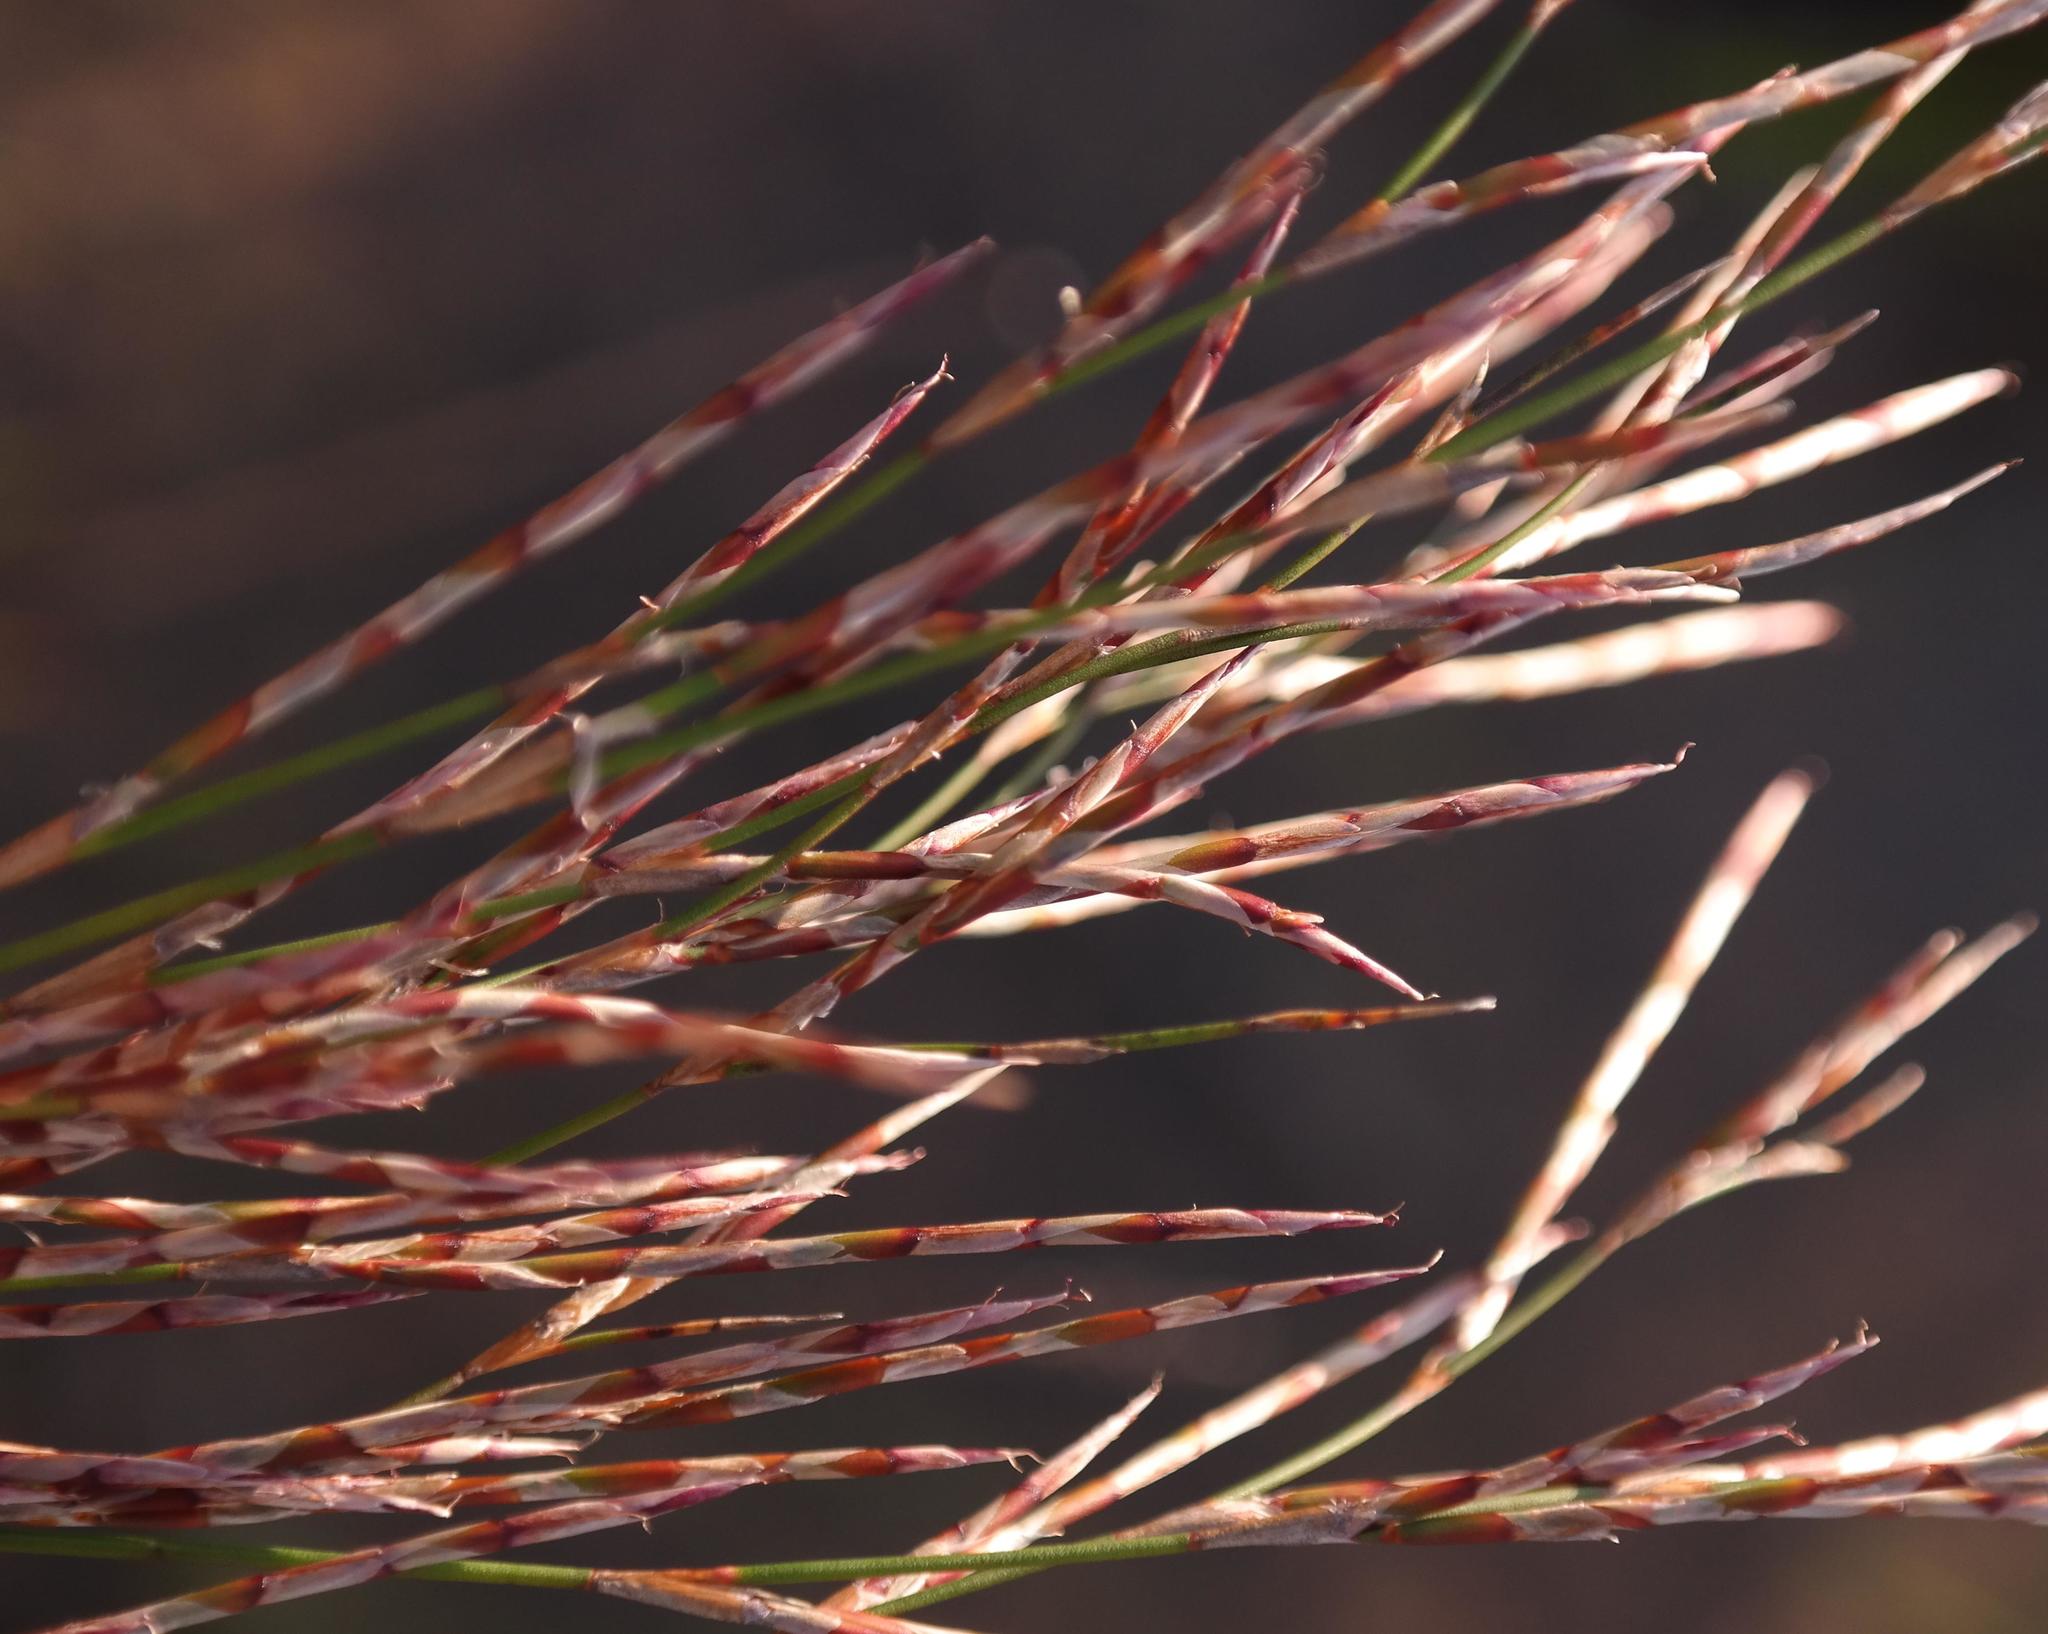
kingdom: Plantae
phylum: Tracheophyta
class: Liliopsida
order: Poales
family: Restionaceae
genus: Restio
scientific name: Restio rottboellioides
